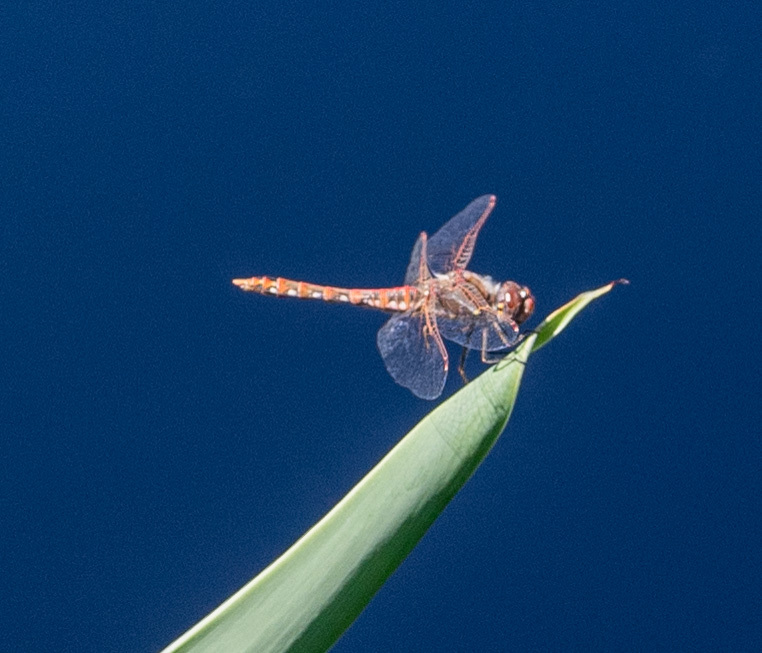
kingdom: Animalia
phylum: Arthropoda
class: Insecta
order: Odonata
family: Libellulidae
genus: Sympetrum
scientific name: Sympetrum corruptum
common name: Variegated meadowhawk
